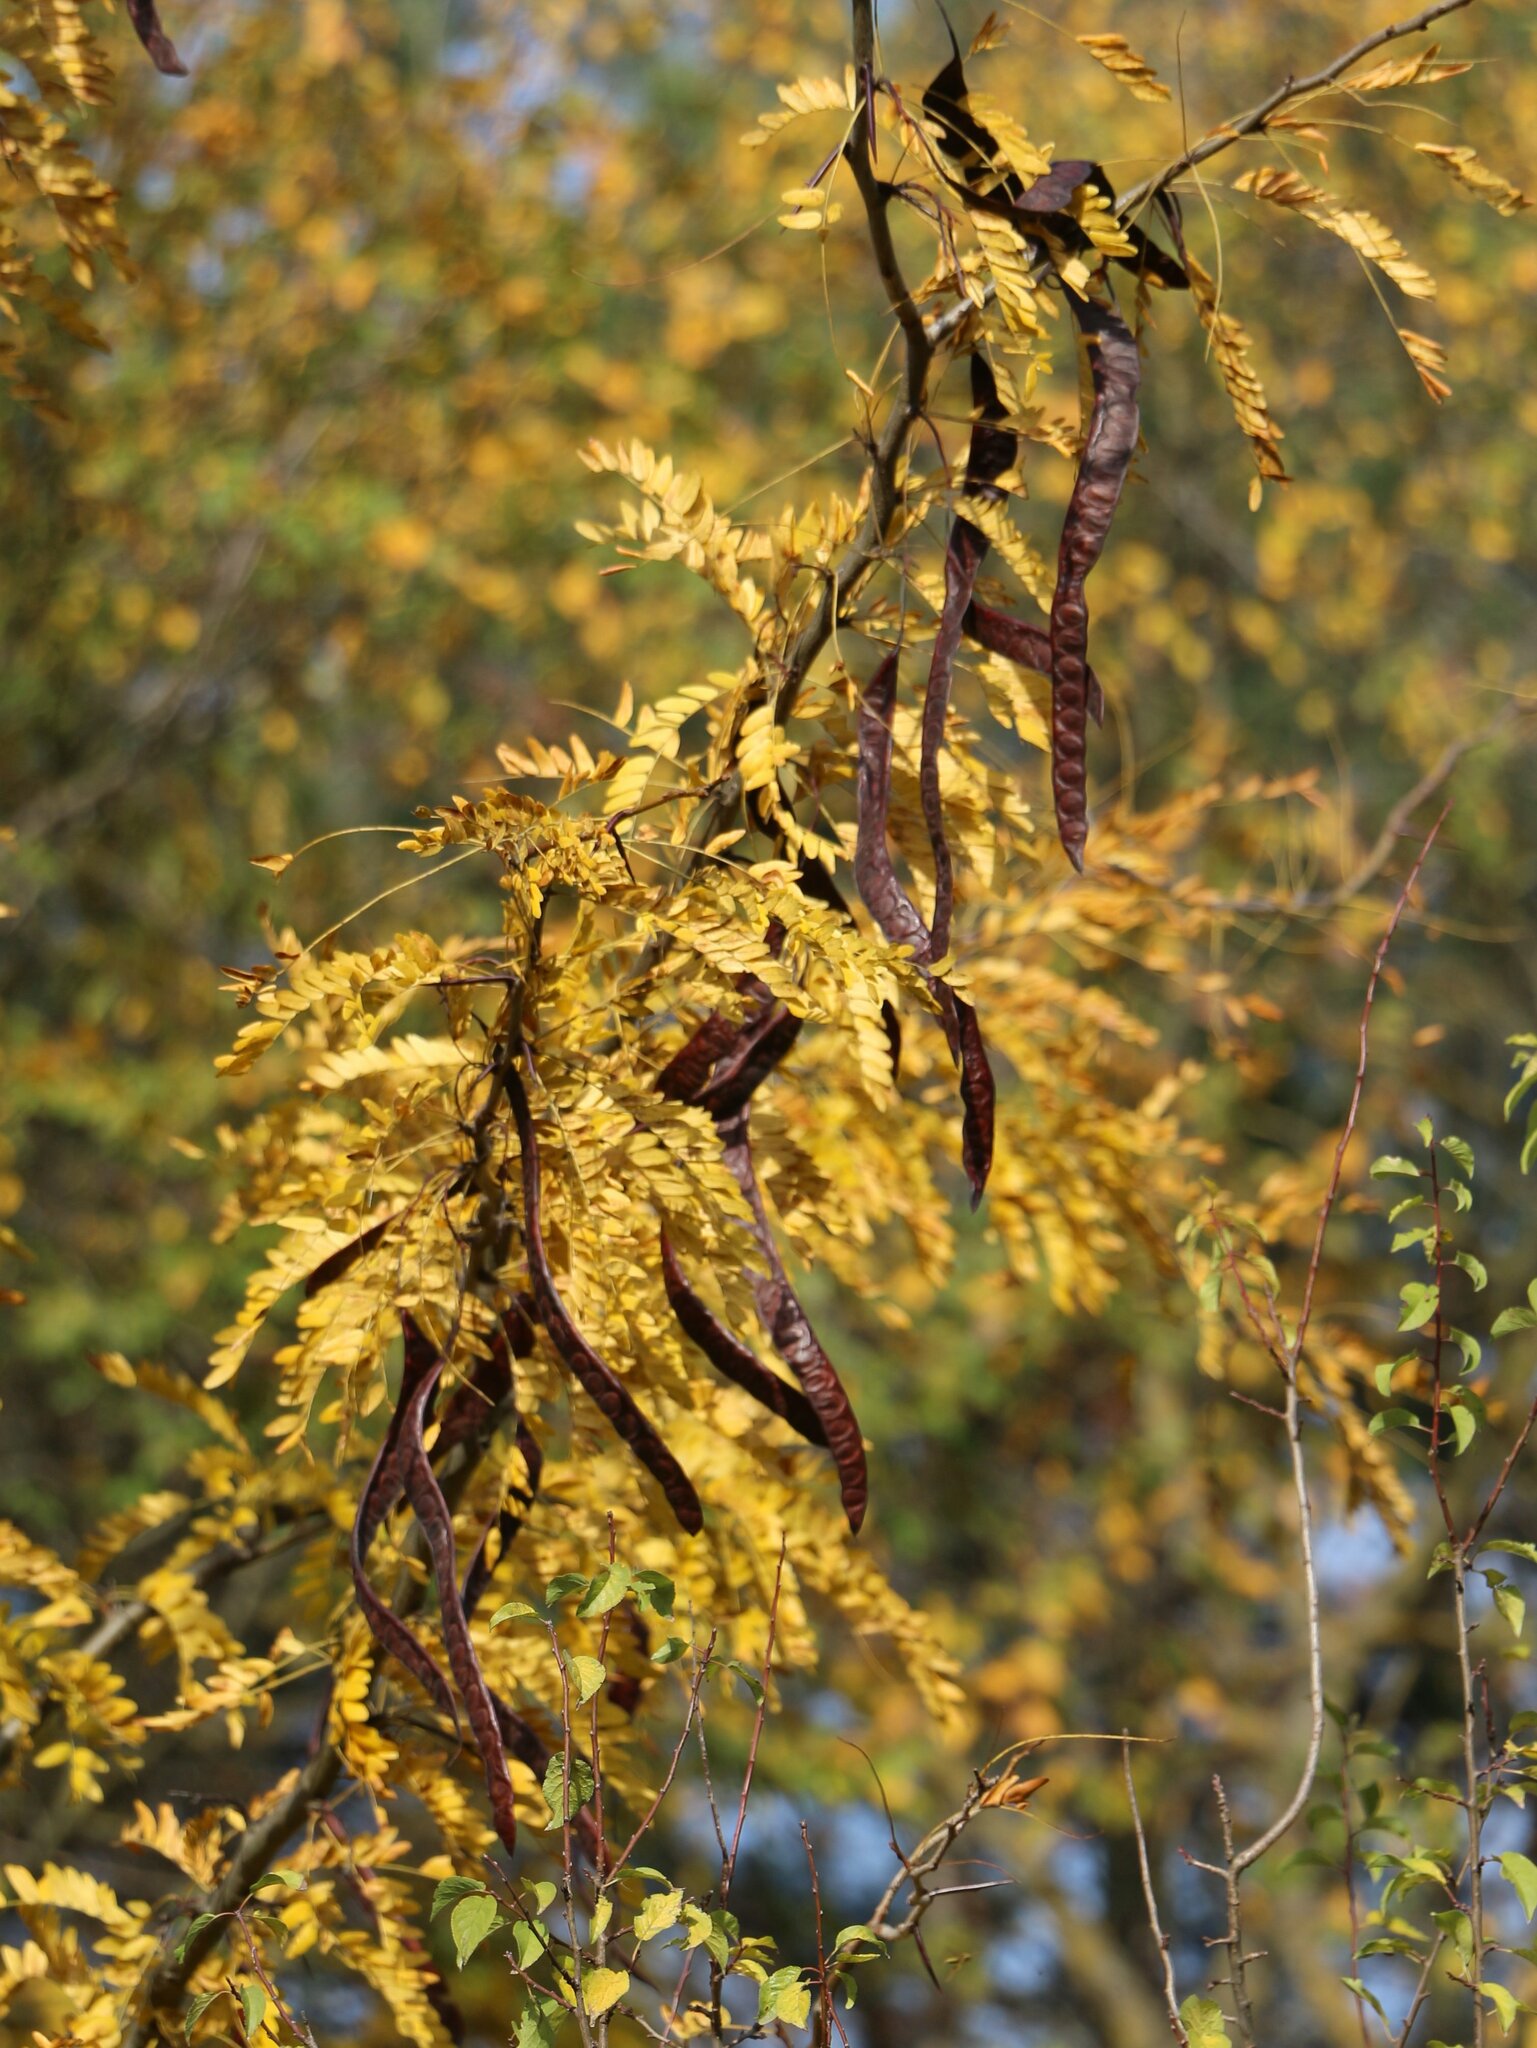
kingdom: Plantae
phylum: Tracheophyta
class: Magnoliopsida
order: Fabales
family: Fabaceae
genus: Gleditsia
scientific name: Gleditsia triacanthos
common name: Common honeylocust
